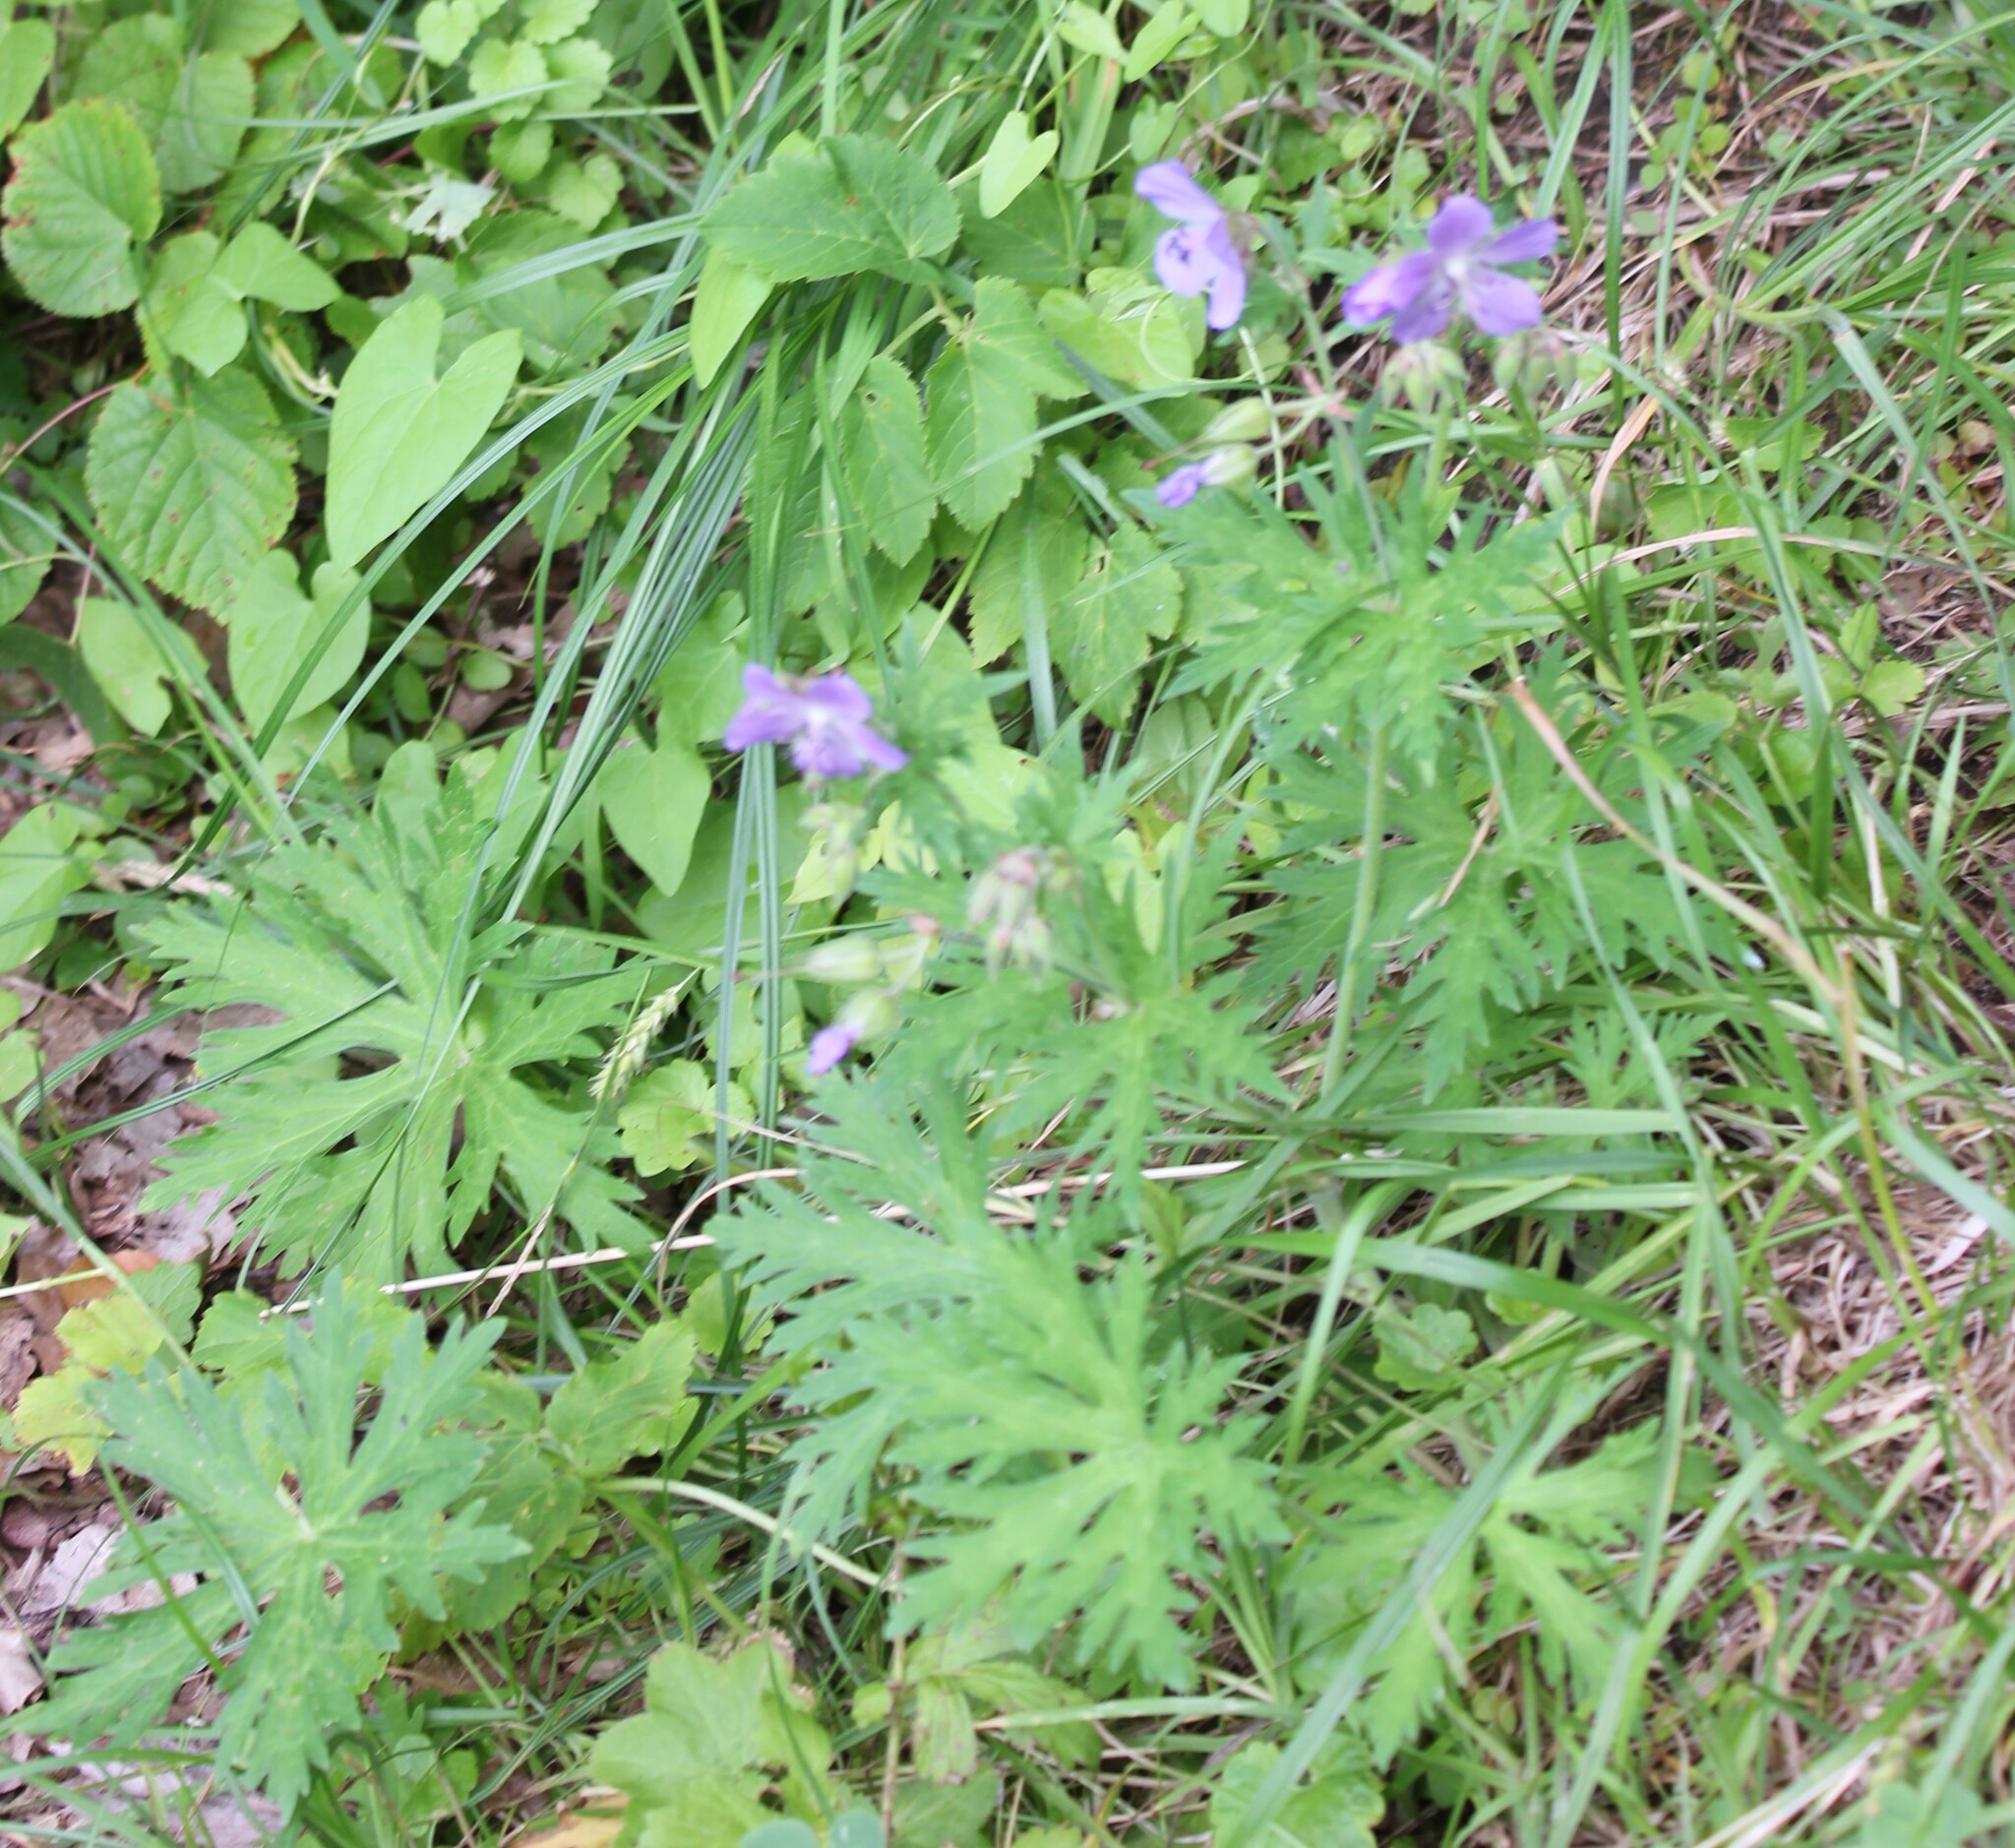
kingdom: Plantae
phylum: Tracheophyta
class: Magnoliopsida
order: Geraniales
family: Geraniaceae
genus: Geranium
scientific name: Geranium pratense
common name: Meadow crane's-bill
